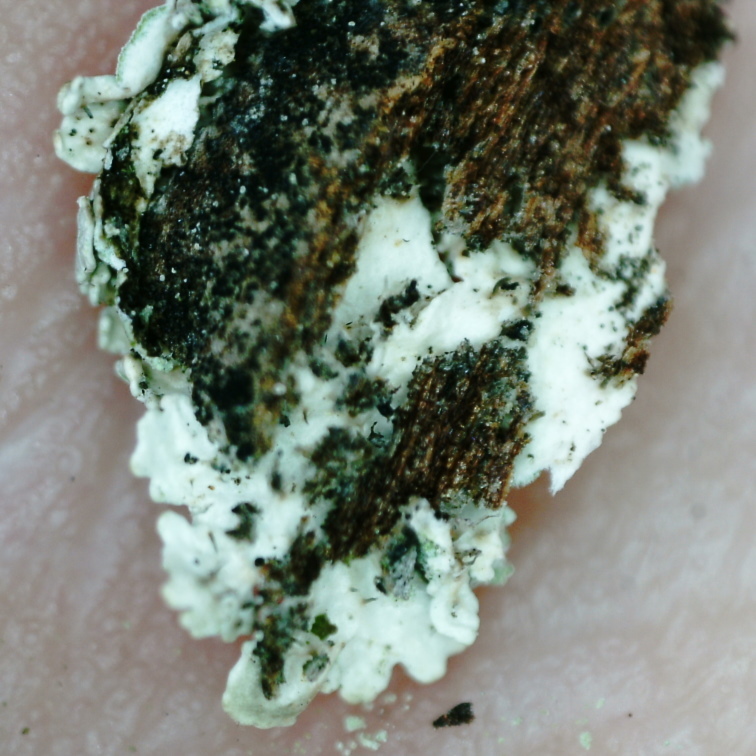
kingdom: Fungi
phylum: Ascomycota
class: Lecanoromycetes
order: Lecanorales
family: Parmeliaceae
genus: Imshaugia
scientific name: Imshaugia aleurites
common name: Salted starburst lichen
